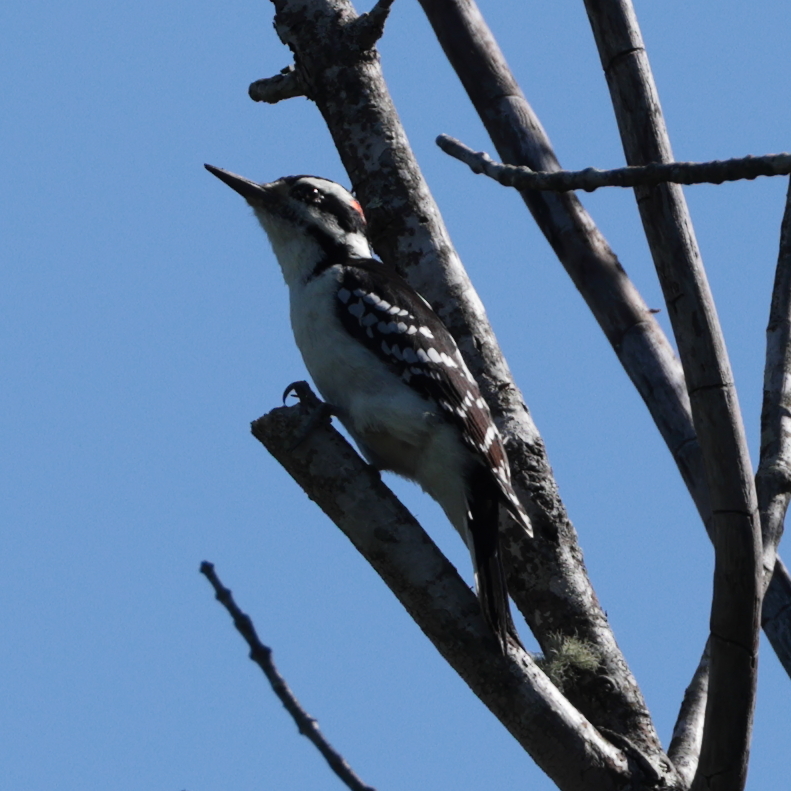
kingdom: Animalia
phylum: Chordata
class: Aves
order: Piciformes
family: Picidae
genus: Leuconotopicus
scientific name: Leuconotopicus villosus
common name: Hairy woodpecker
